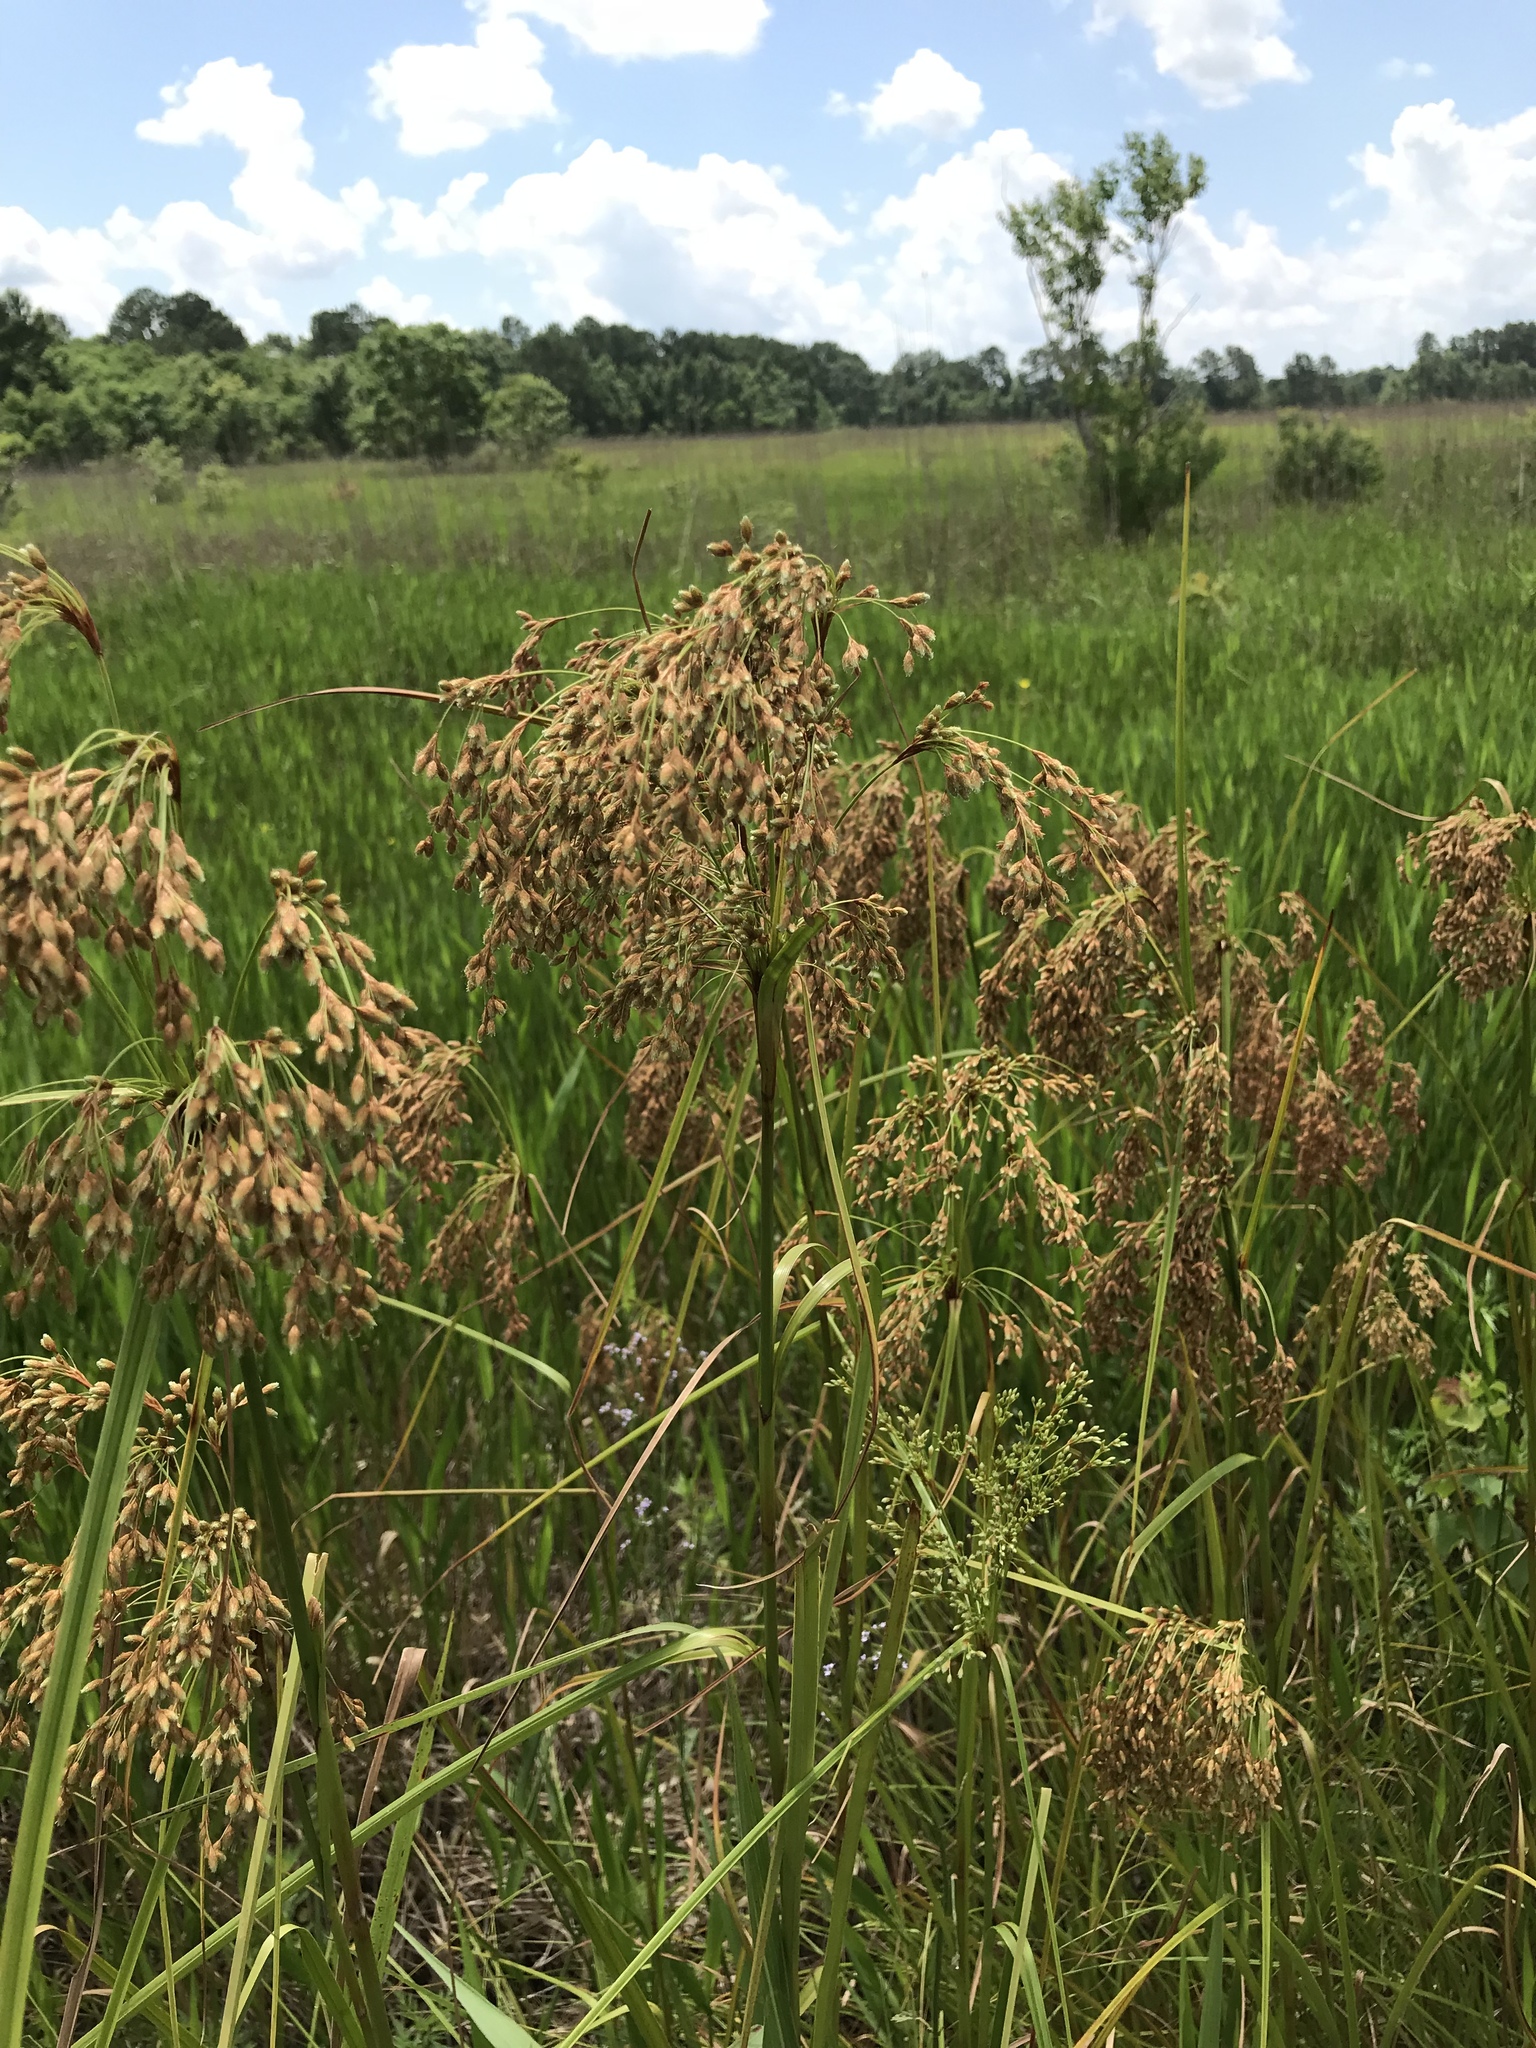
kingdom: Plantae
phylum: Tracheophyta
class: Liliopsida
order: Poales
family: Cyperaceae
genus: Scirpus
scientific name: Scirpus cyperinus
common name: Black-sheathed bulrush
